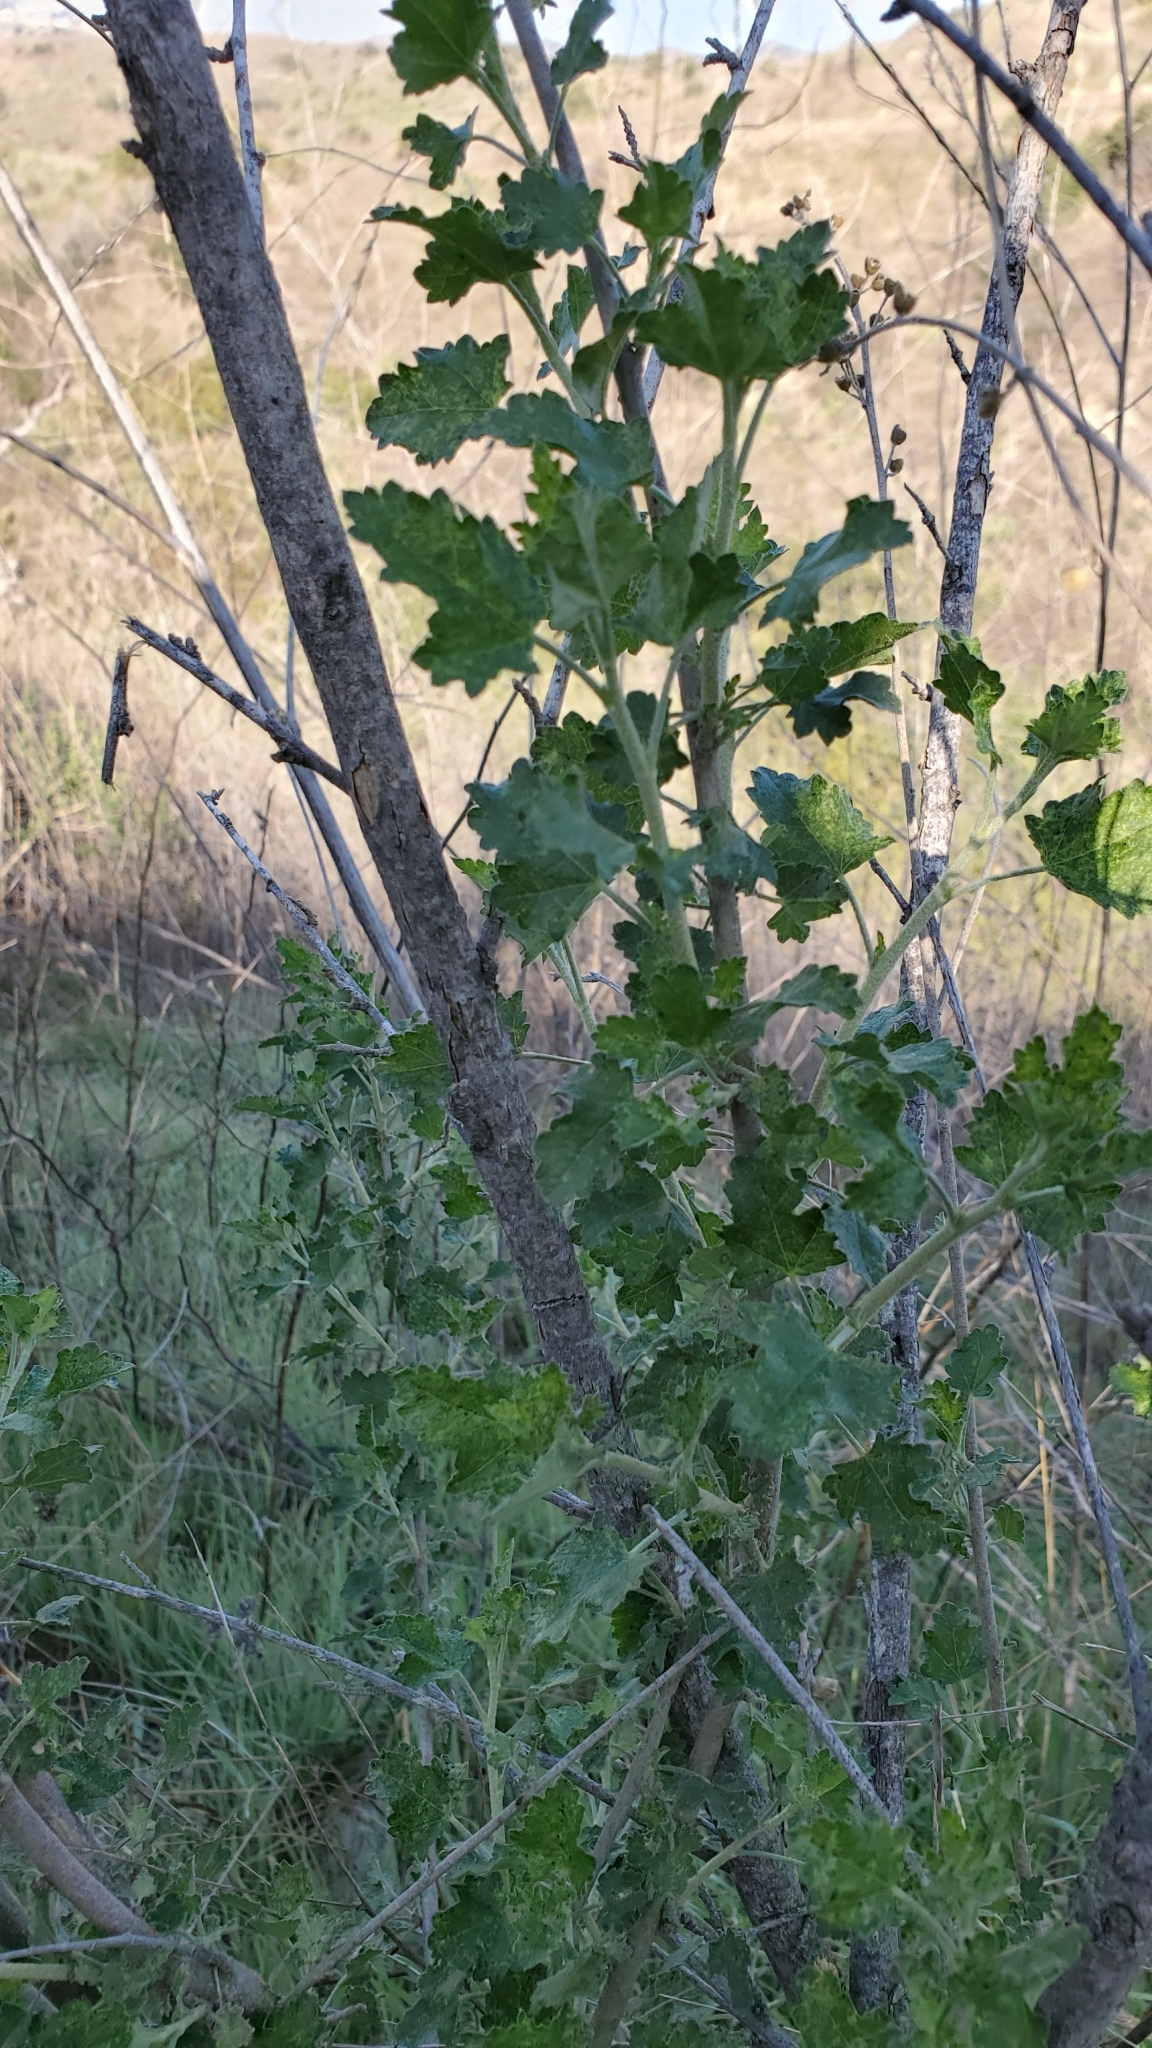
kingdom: Plantae
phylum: Tracheophyta
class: Magnoliopsida
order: Malvales
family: Malvaceae
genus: Malacothamnus
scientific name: Malacothamnus fasciculatus
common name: Sant cruz island bush-mallow
